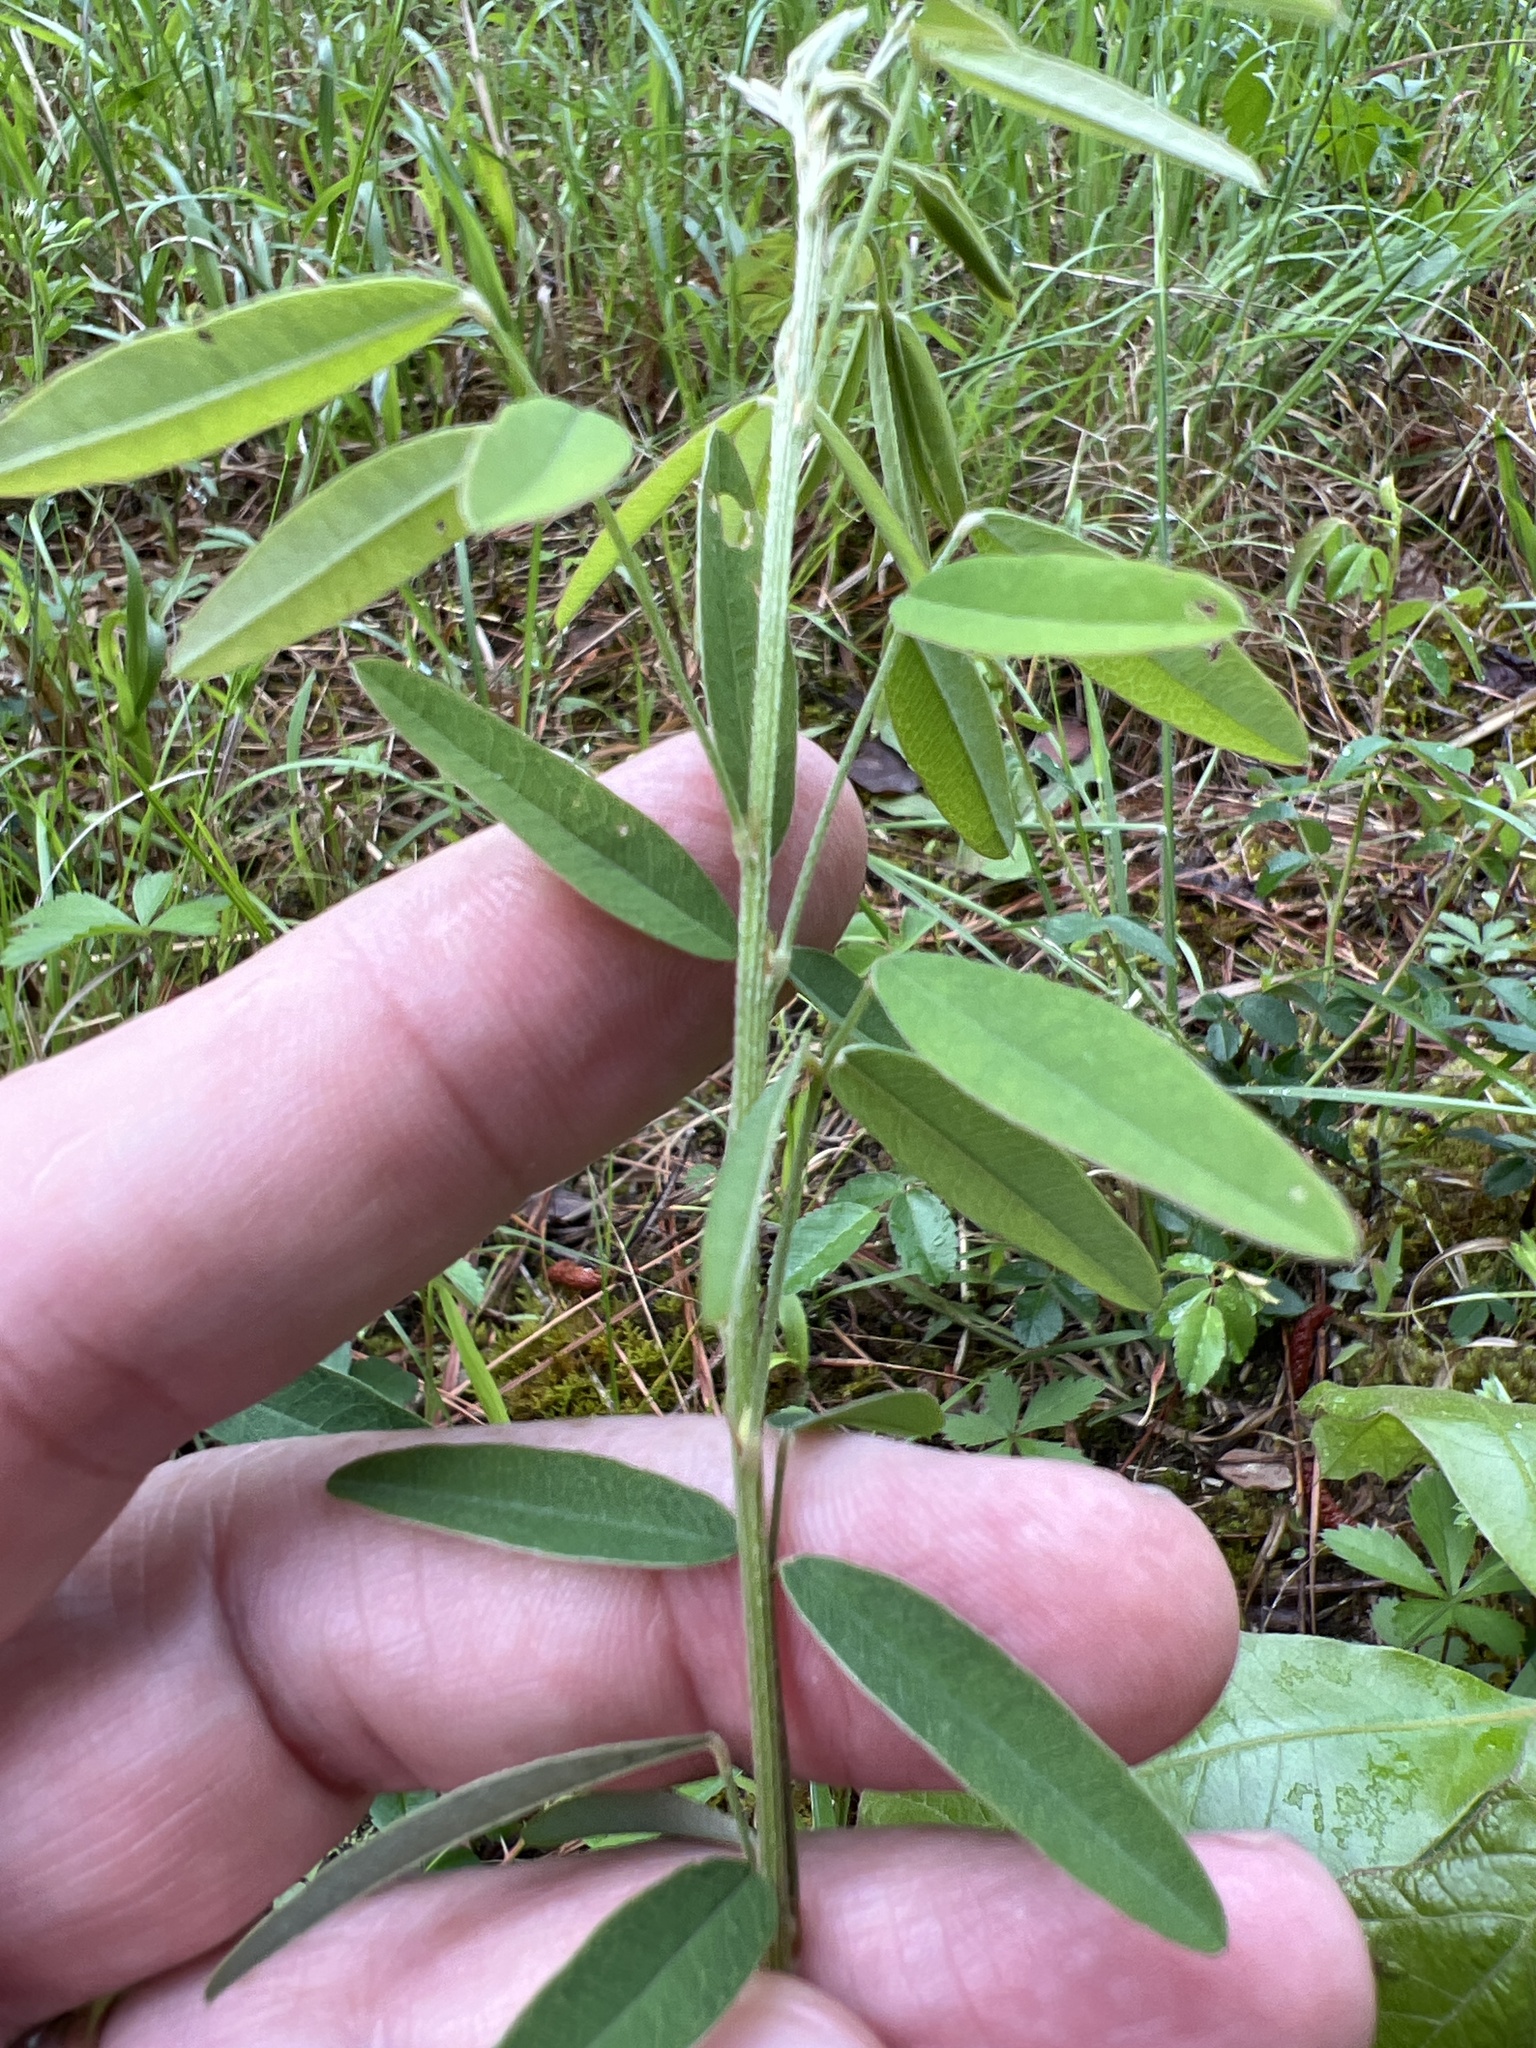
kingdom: Plantae
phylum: Tracheophyta
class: Magnoliopsida
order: Fabales
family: Fabaceae
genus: Lespedeza
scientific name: Lespedeza virginica
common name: Slender bush-clover
